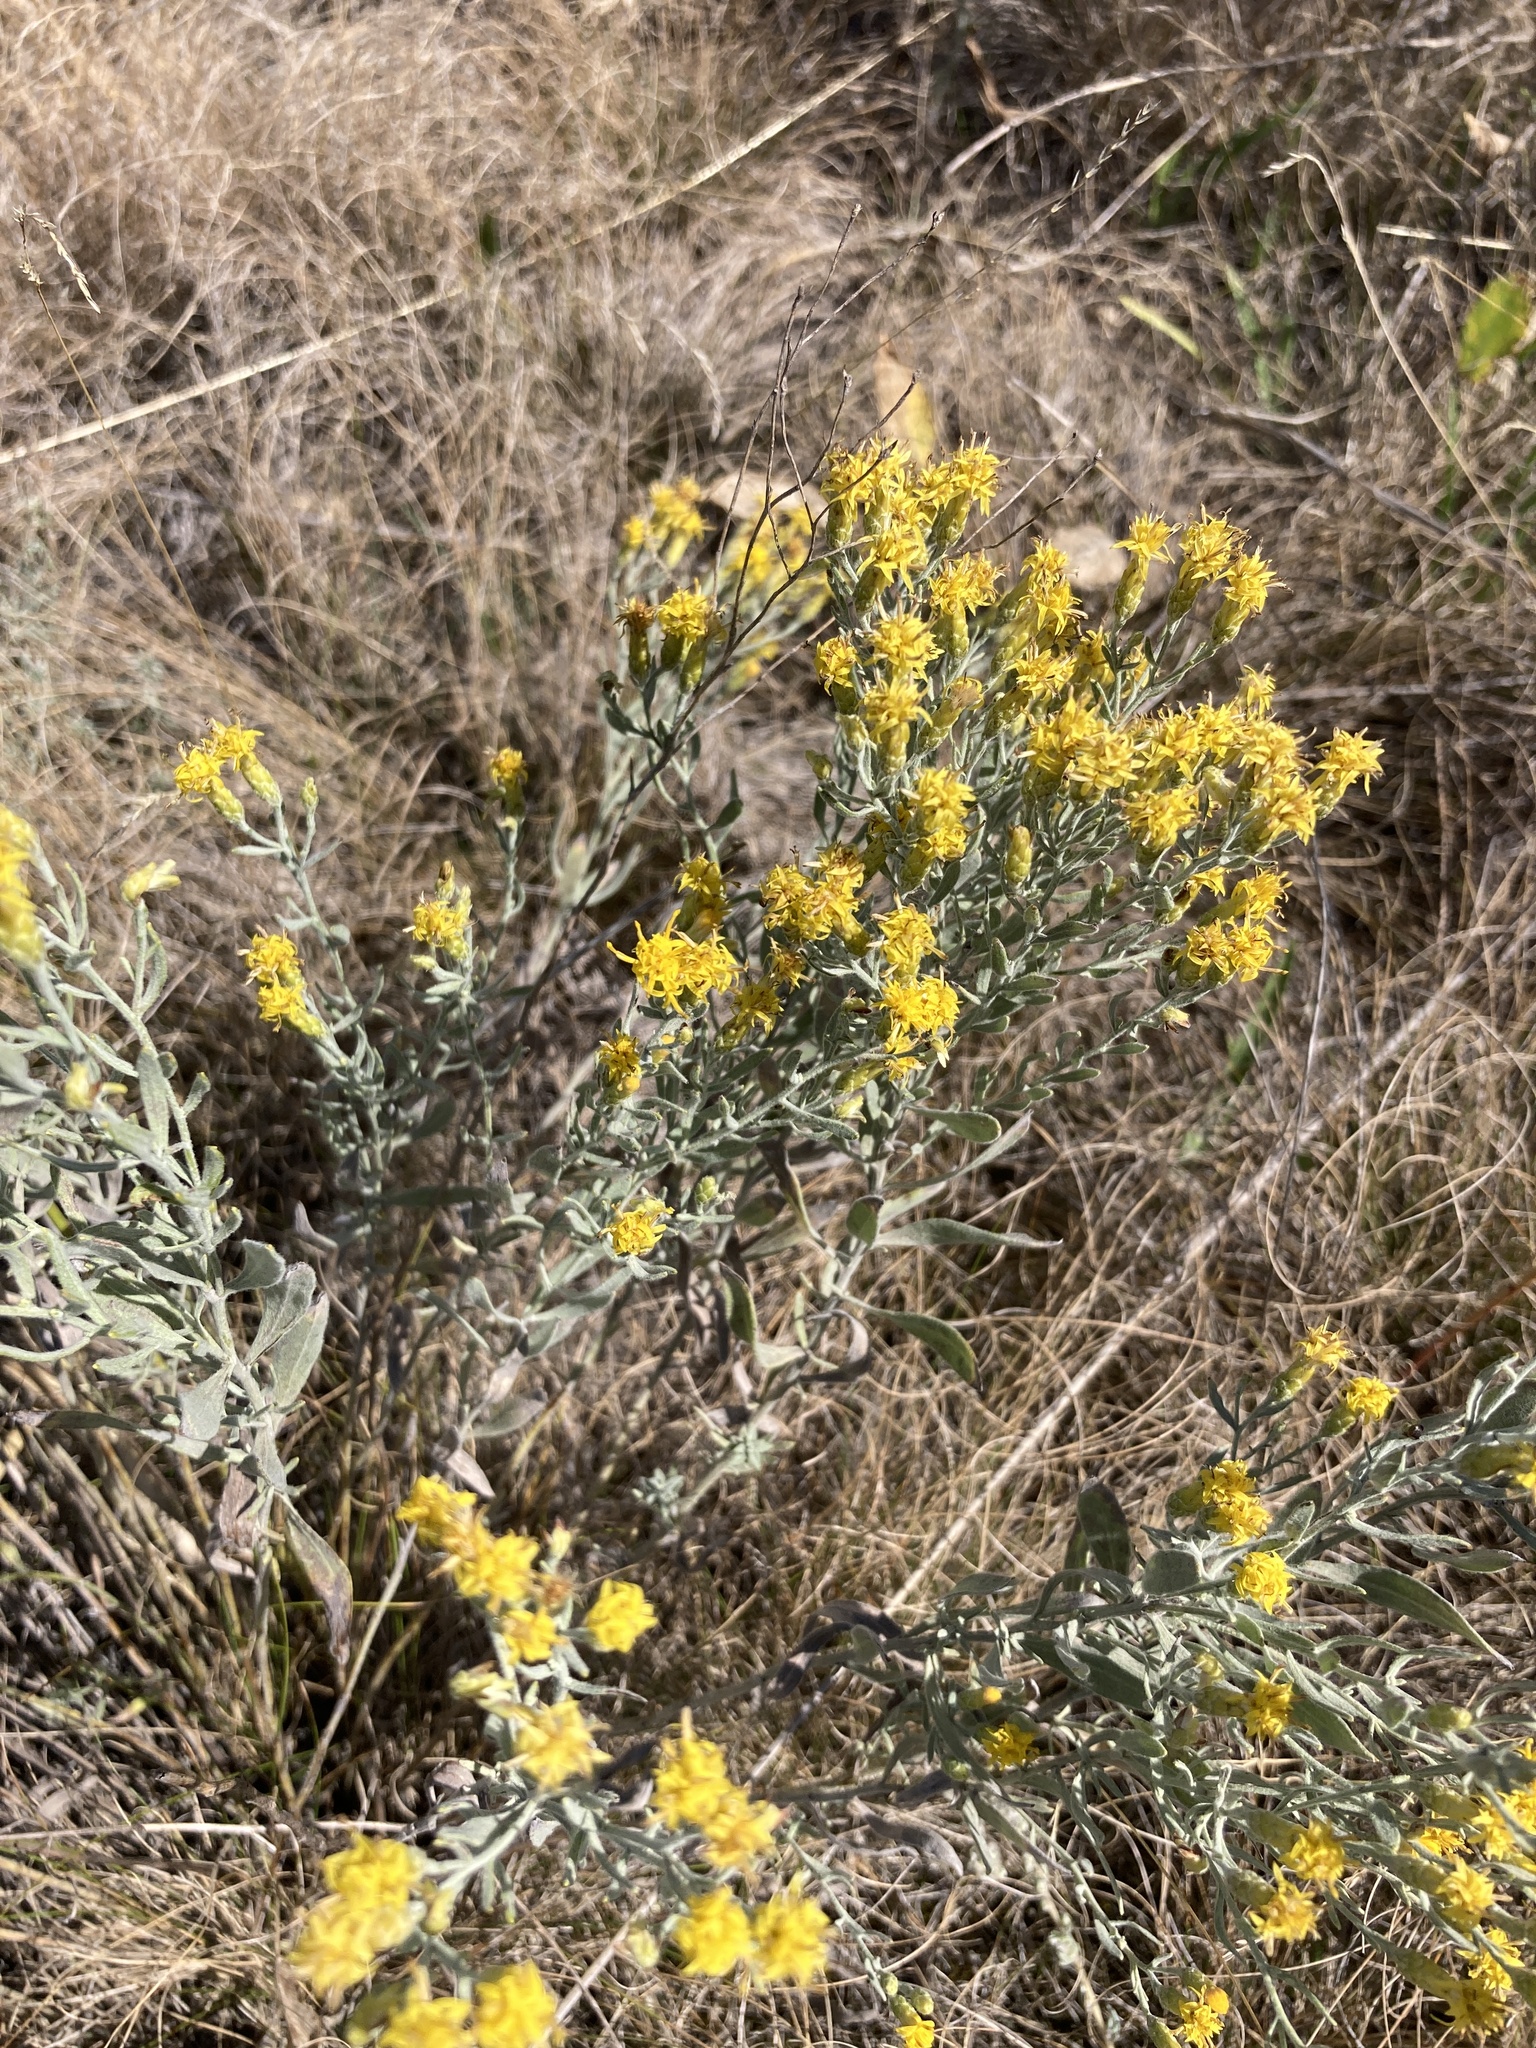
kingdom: Plantae
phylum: Tracheophyta
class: Magnoliopsida
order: Asterales
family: Asteraceae
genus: Galatella
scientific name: Galatella villosa
